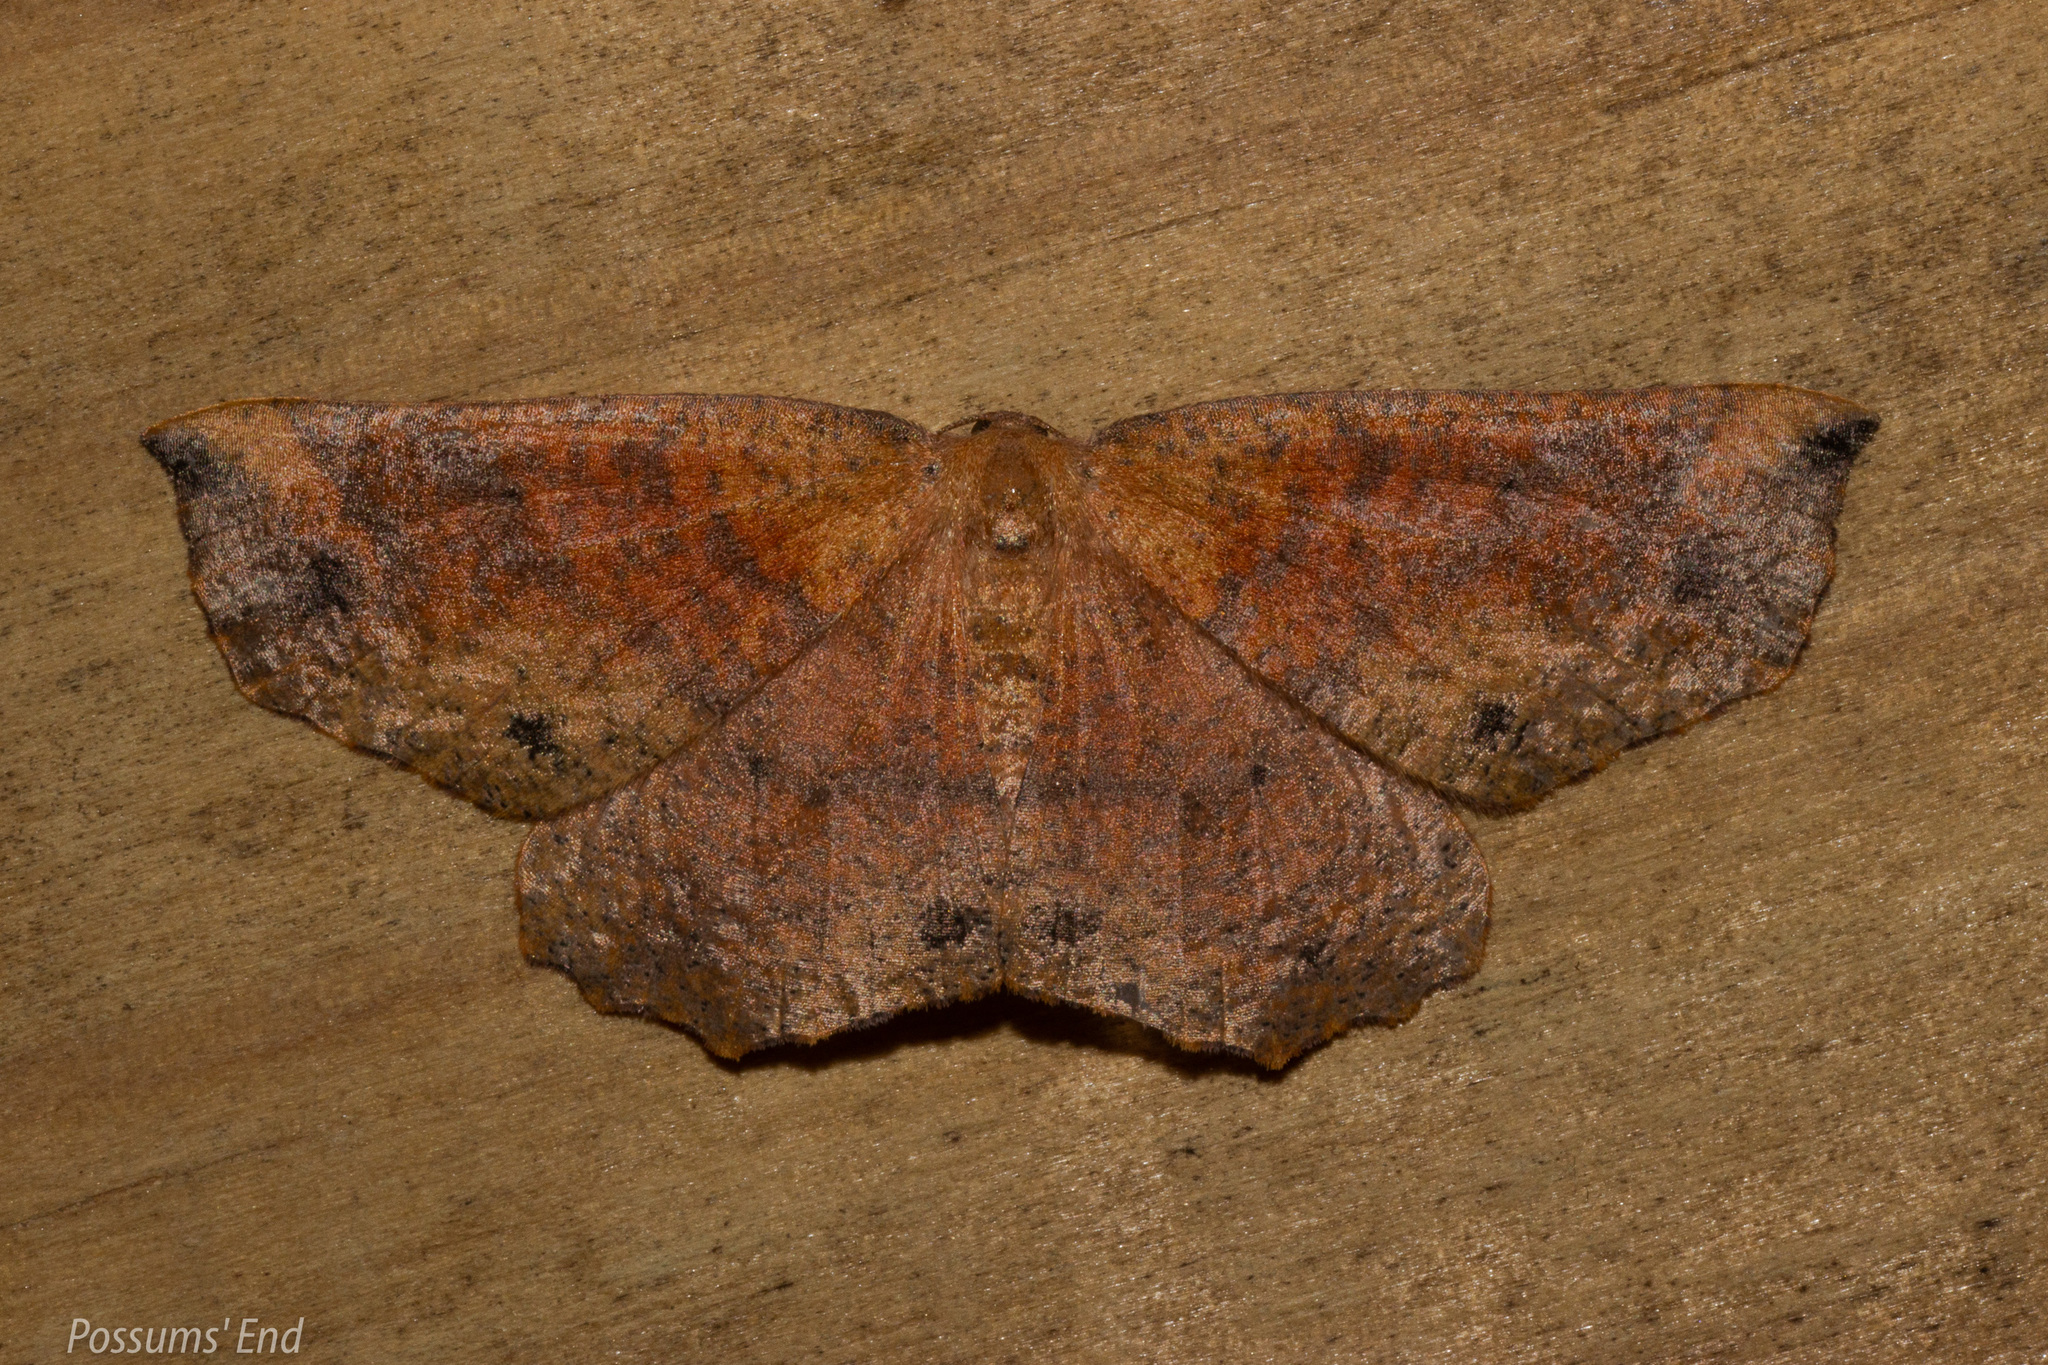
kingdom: Animalia
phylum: Arthropoda
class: Insecta
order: Lepidoptera
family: Geometridae
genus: Xyridacma
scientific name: Xyridacma ustaria
